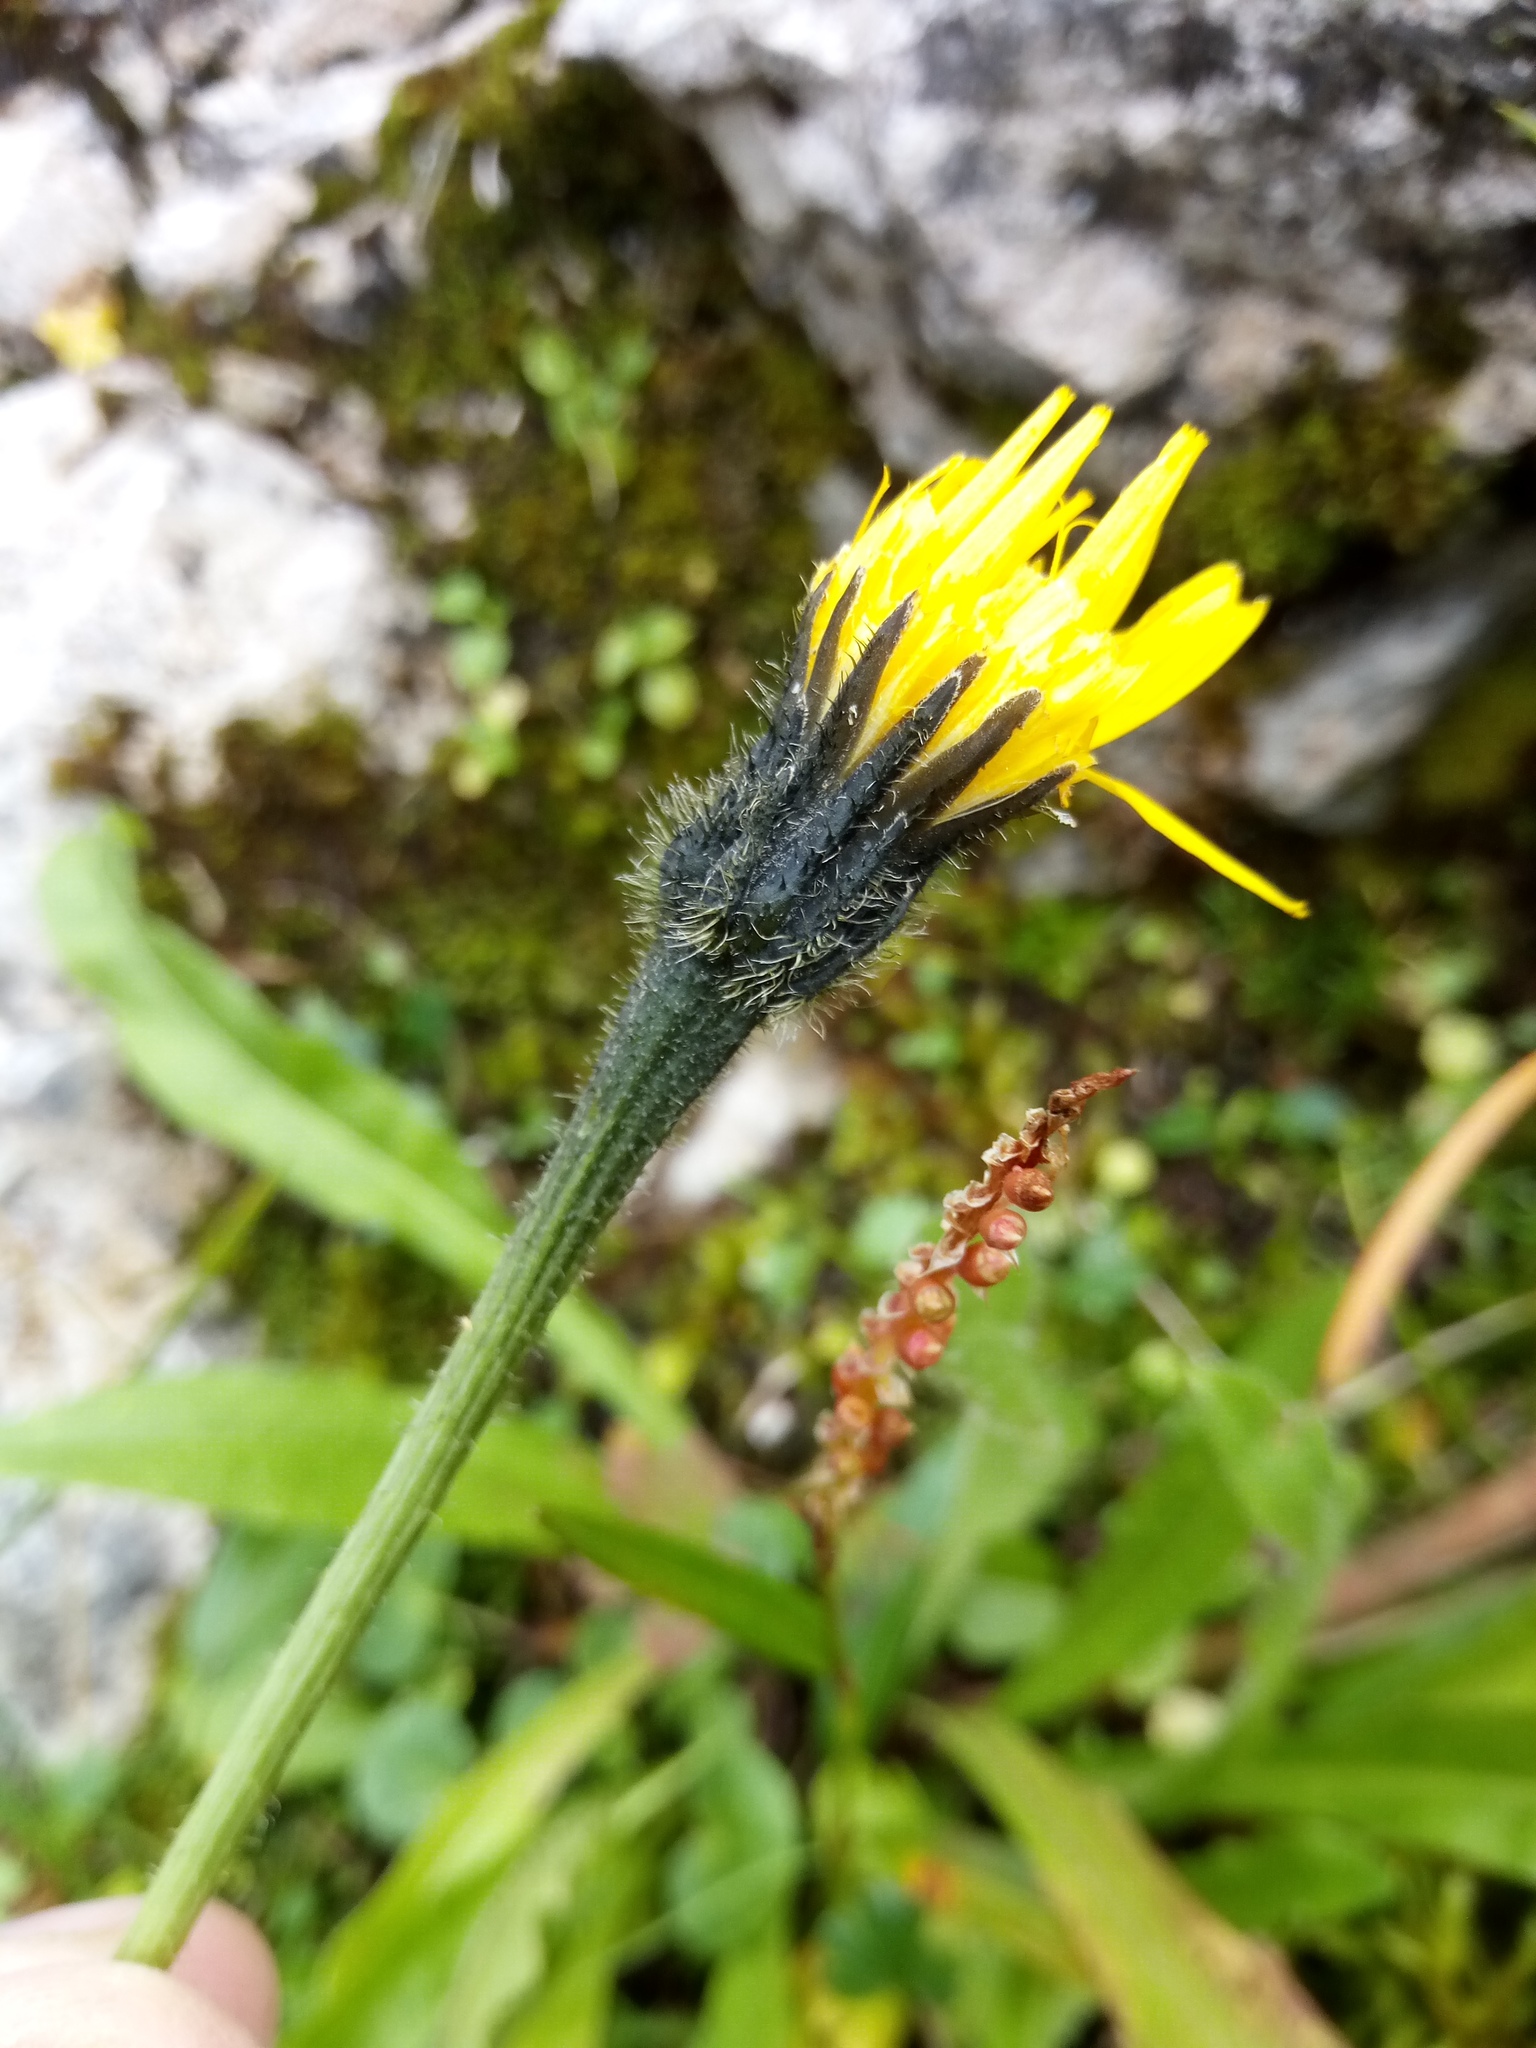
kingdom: Plantae
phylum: Tracheophyta
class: Magnoliopsida
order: Asterales
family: Asteraceae
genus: Leontodon
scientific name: Leontodon hispidus
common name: Rough hawkbit
